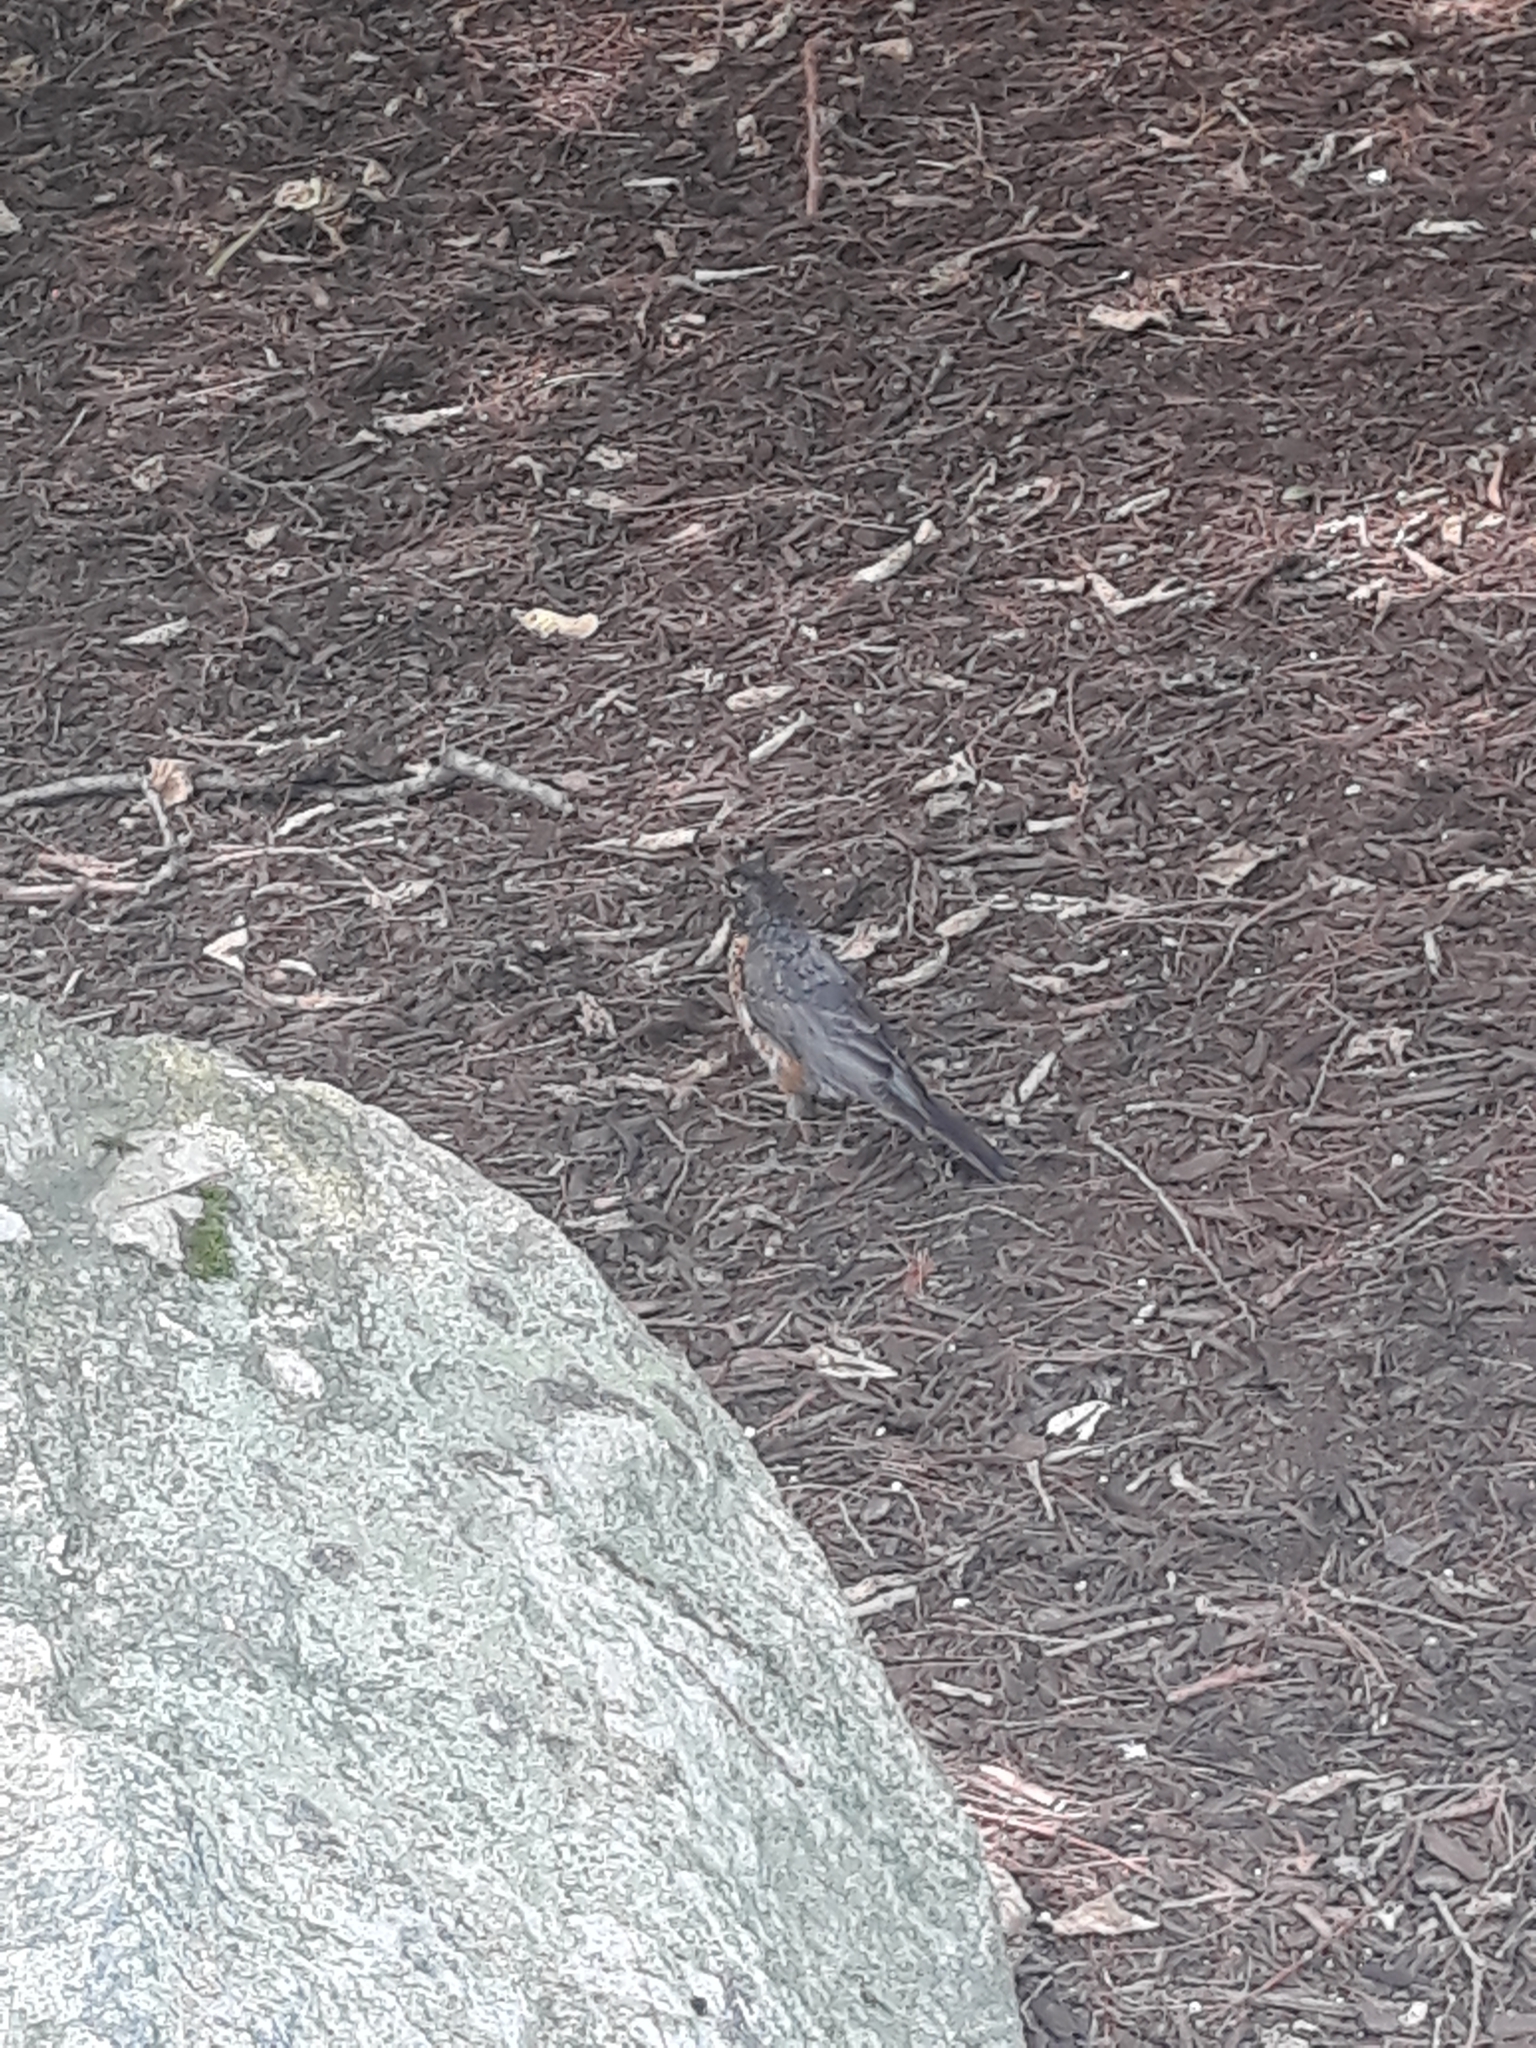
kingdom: Animalia
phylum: Chordata
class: Aves
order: Passeriformes
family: Turdidae
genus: Turdus
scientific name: Turdus migratorius
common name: American robin
